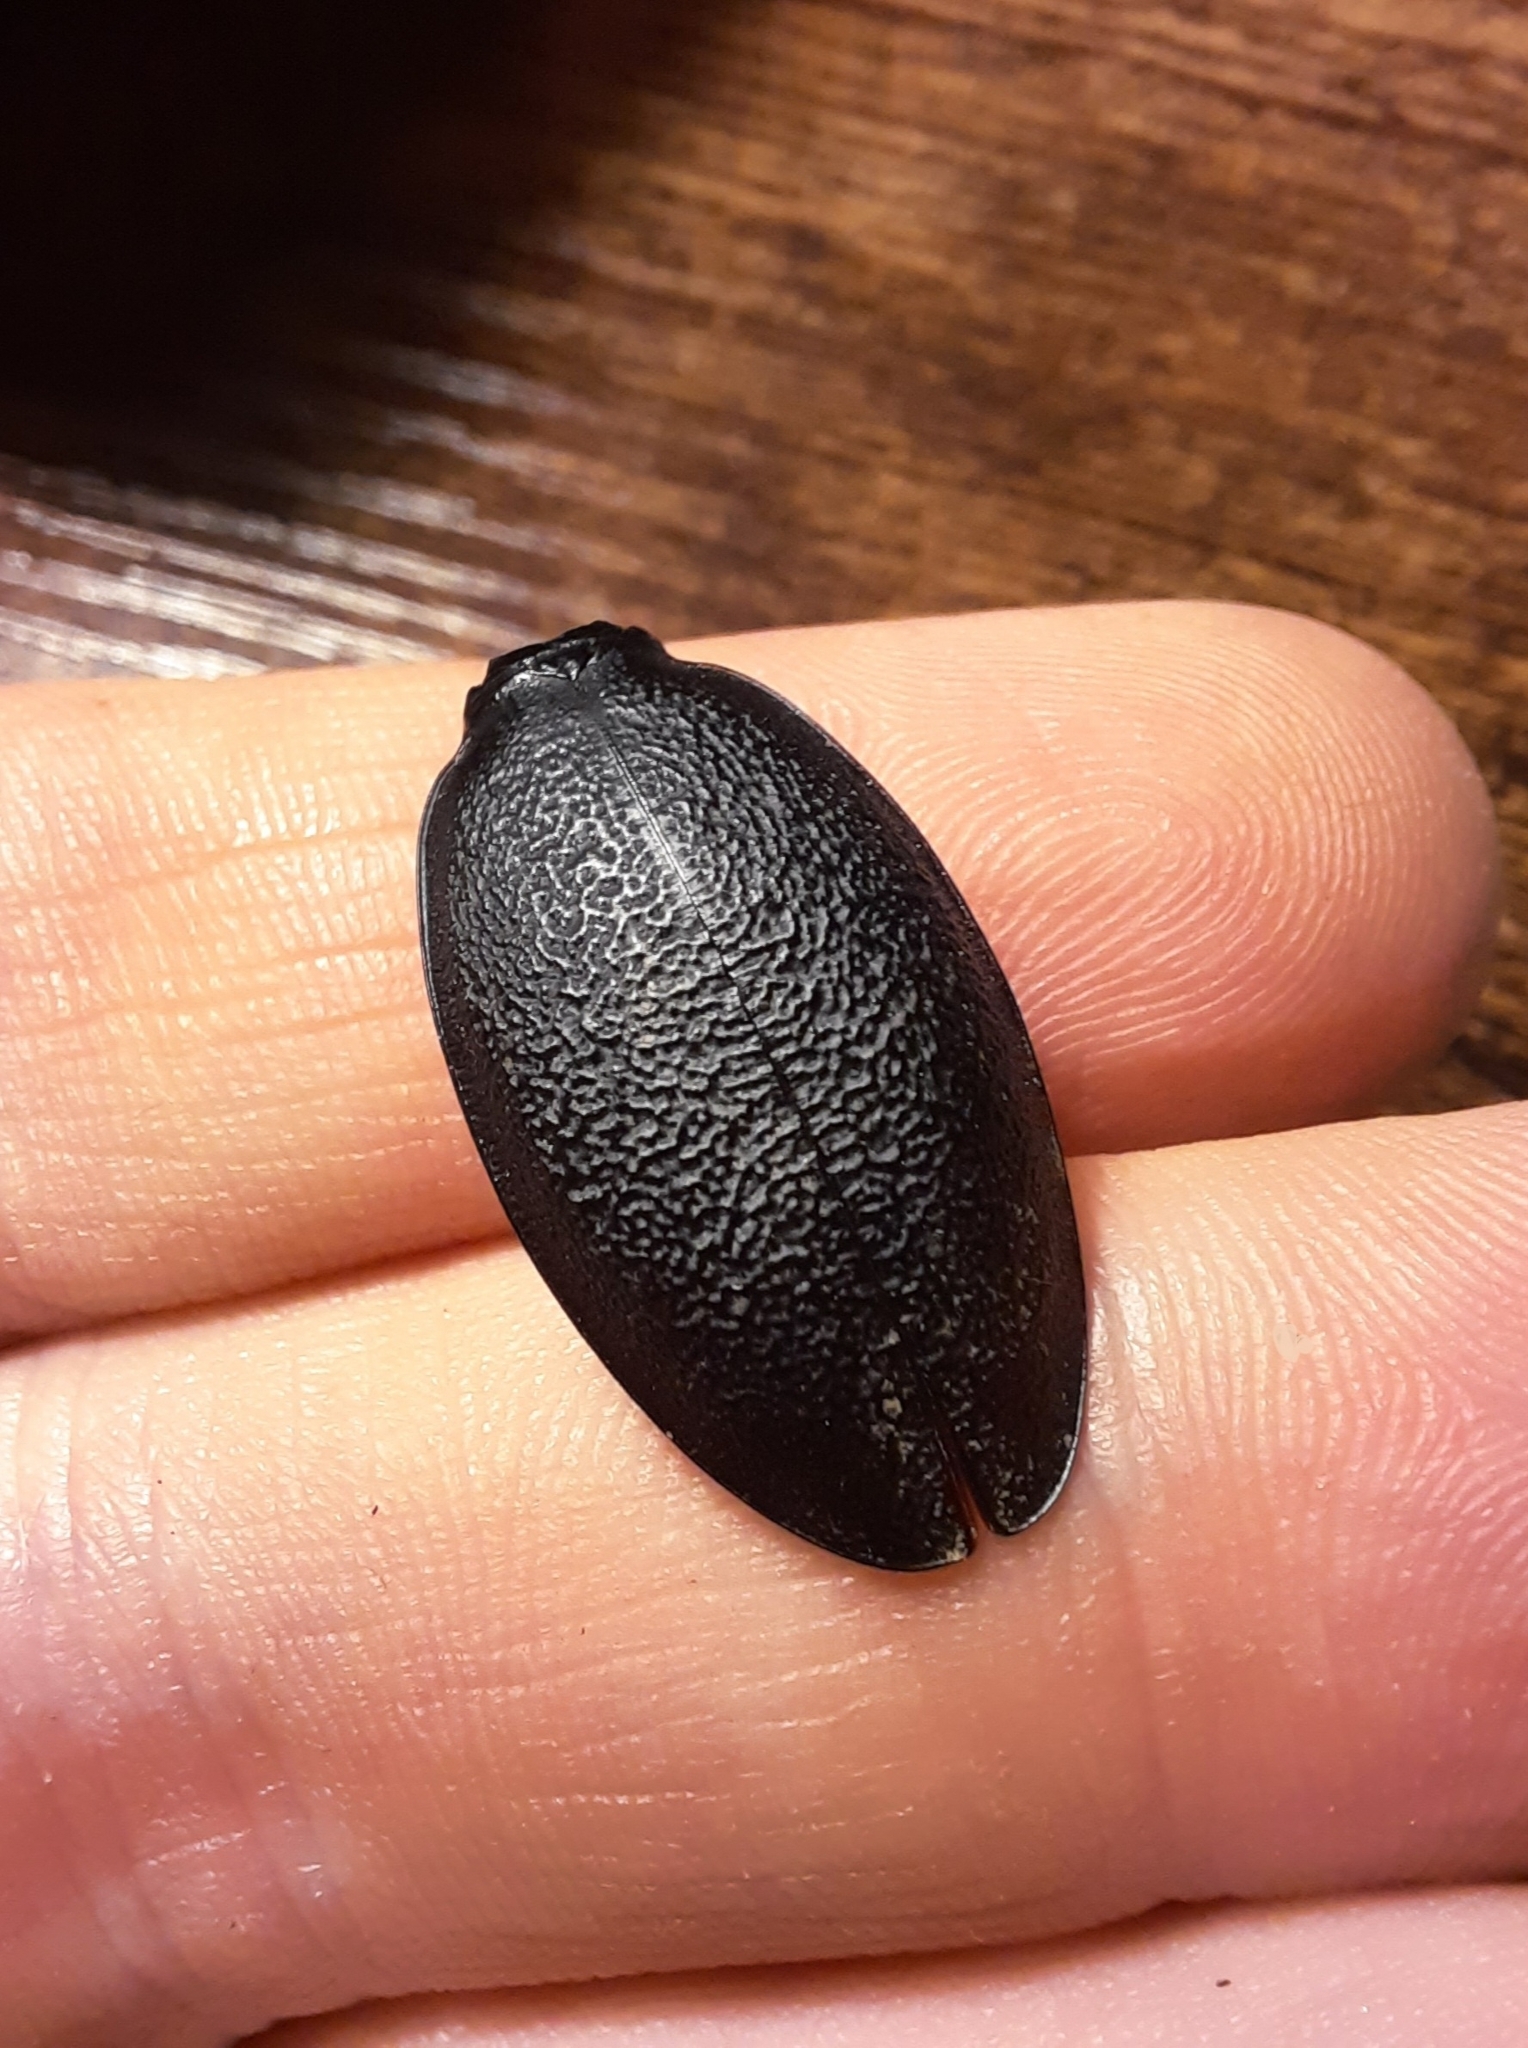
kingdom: Animalia
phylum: Arthropoda
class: Insecta
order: Coleoptera
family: Carabidae
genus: Carabus
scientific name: Carabus coriaceus
